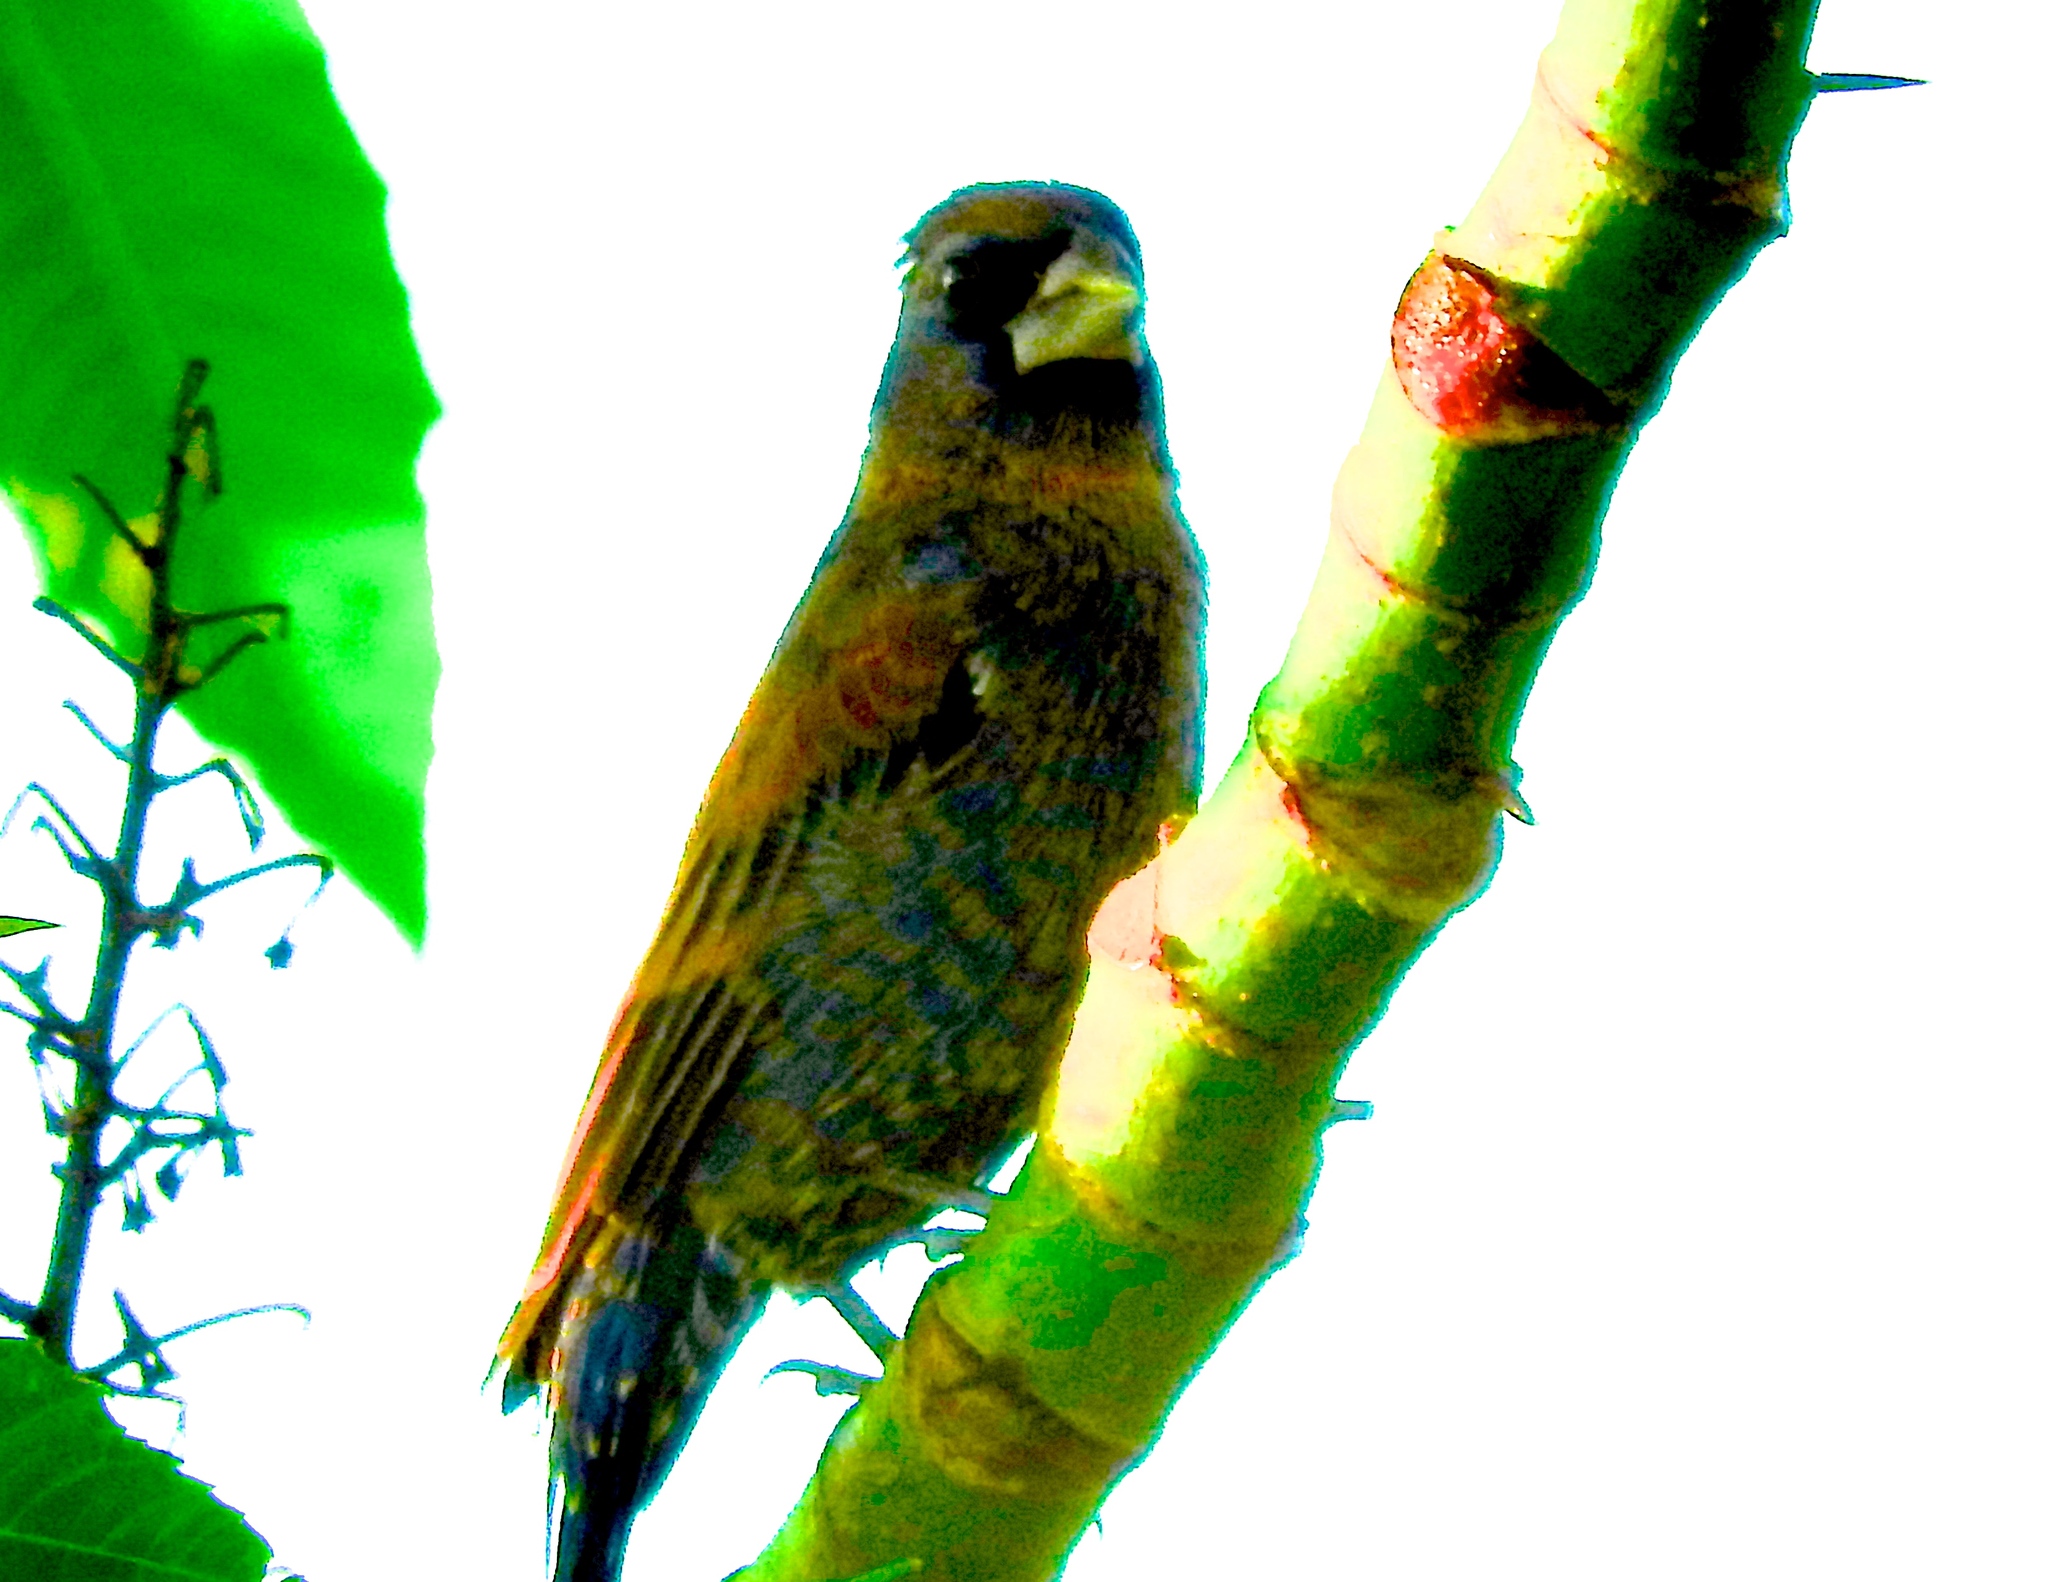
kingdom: Animalia
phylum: Chordata
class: Aves
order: Passeriformes
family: Cardinalidae
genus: Passerina
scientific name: Passerina caerulea
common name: Blue grosbeak
